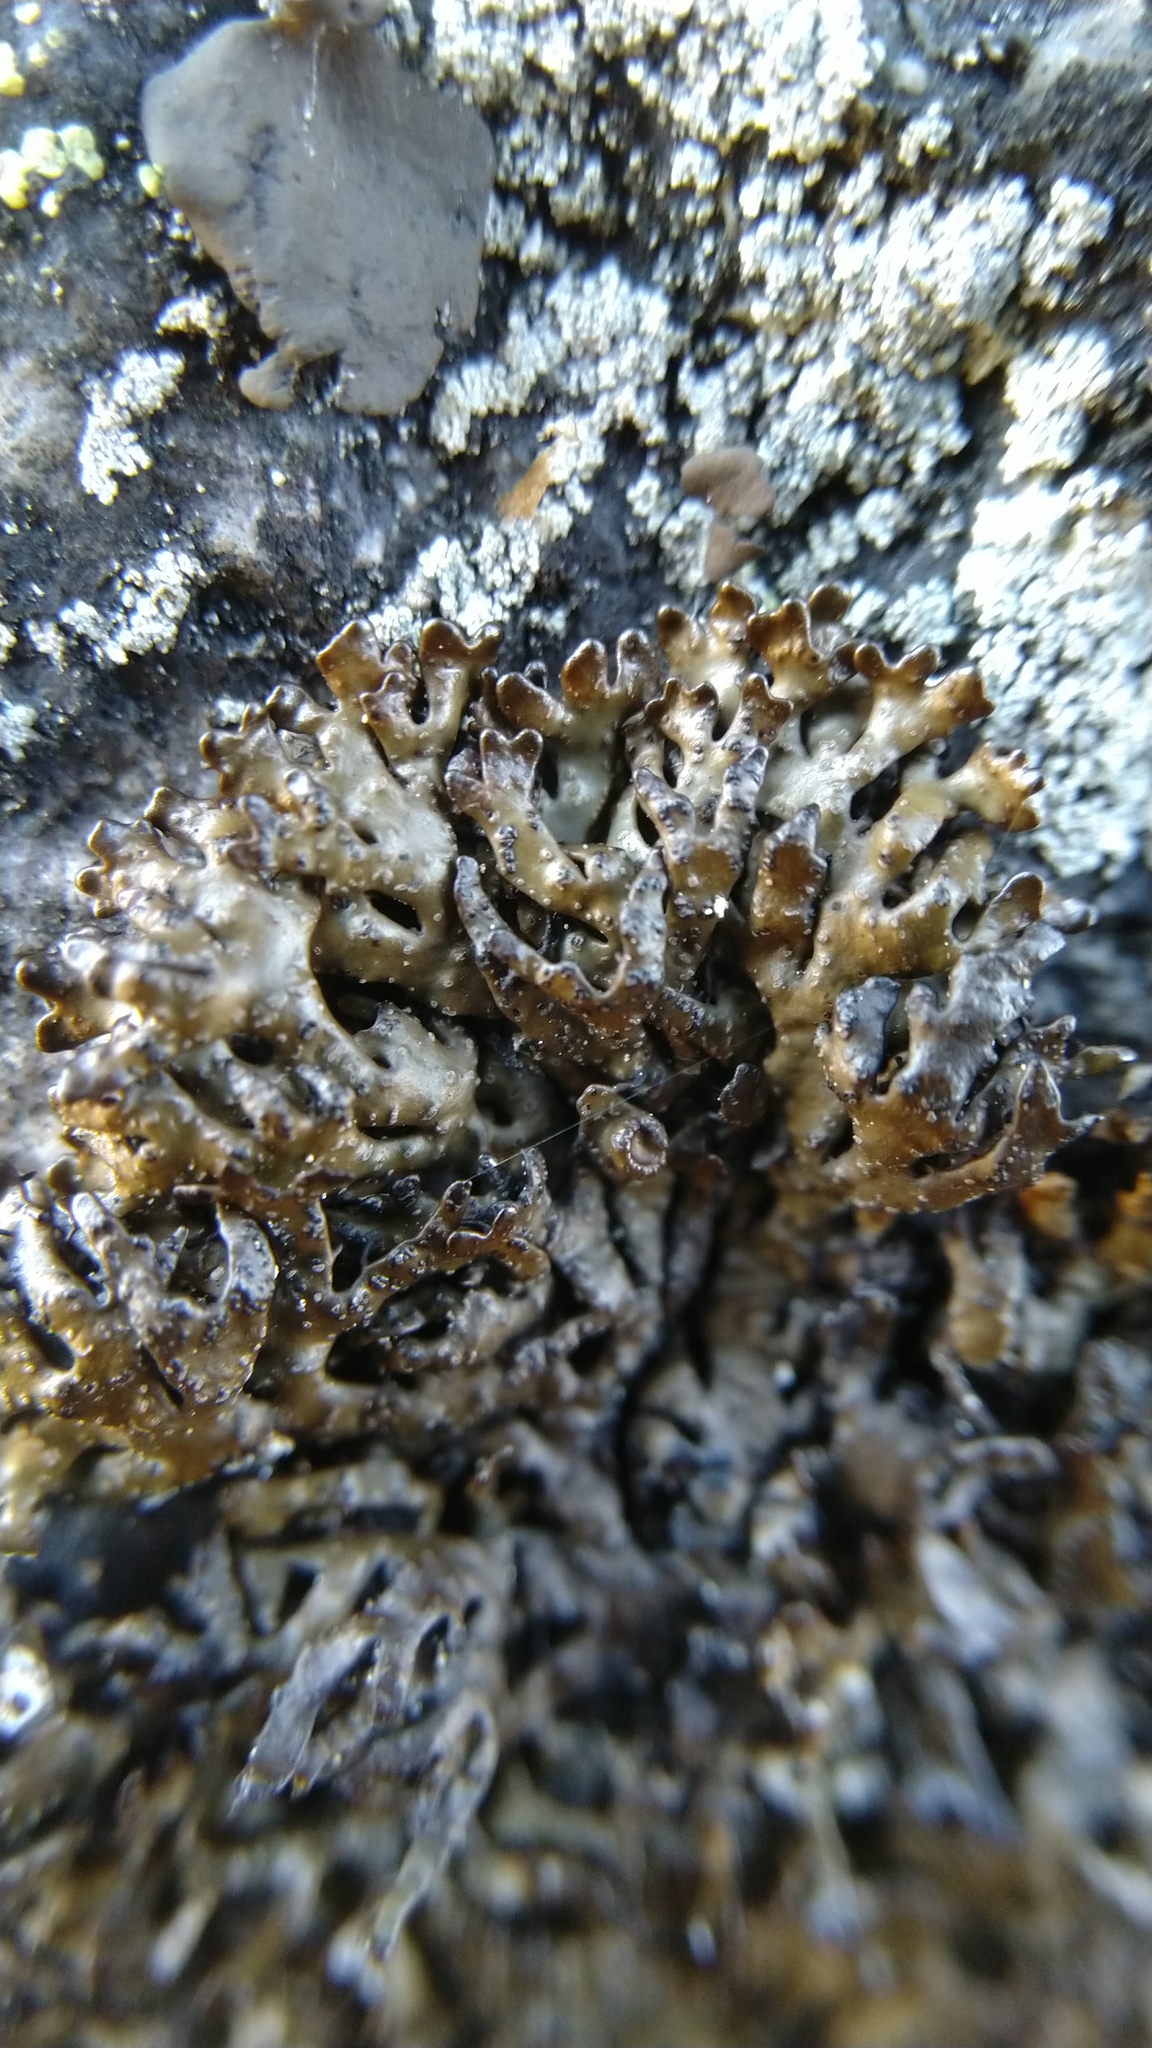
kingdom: Fungi
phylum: Ascomycota
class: Lecanoromycetes
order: Lecanorales
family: Parmeliaceae
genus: Melanelia
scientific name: Melanelia stygia
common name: Alpine camouflage lichen
